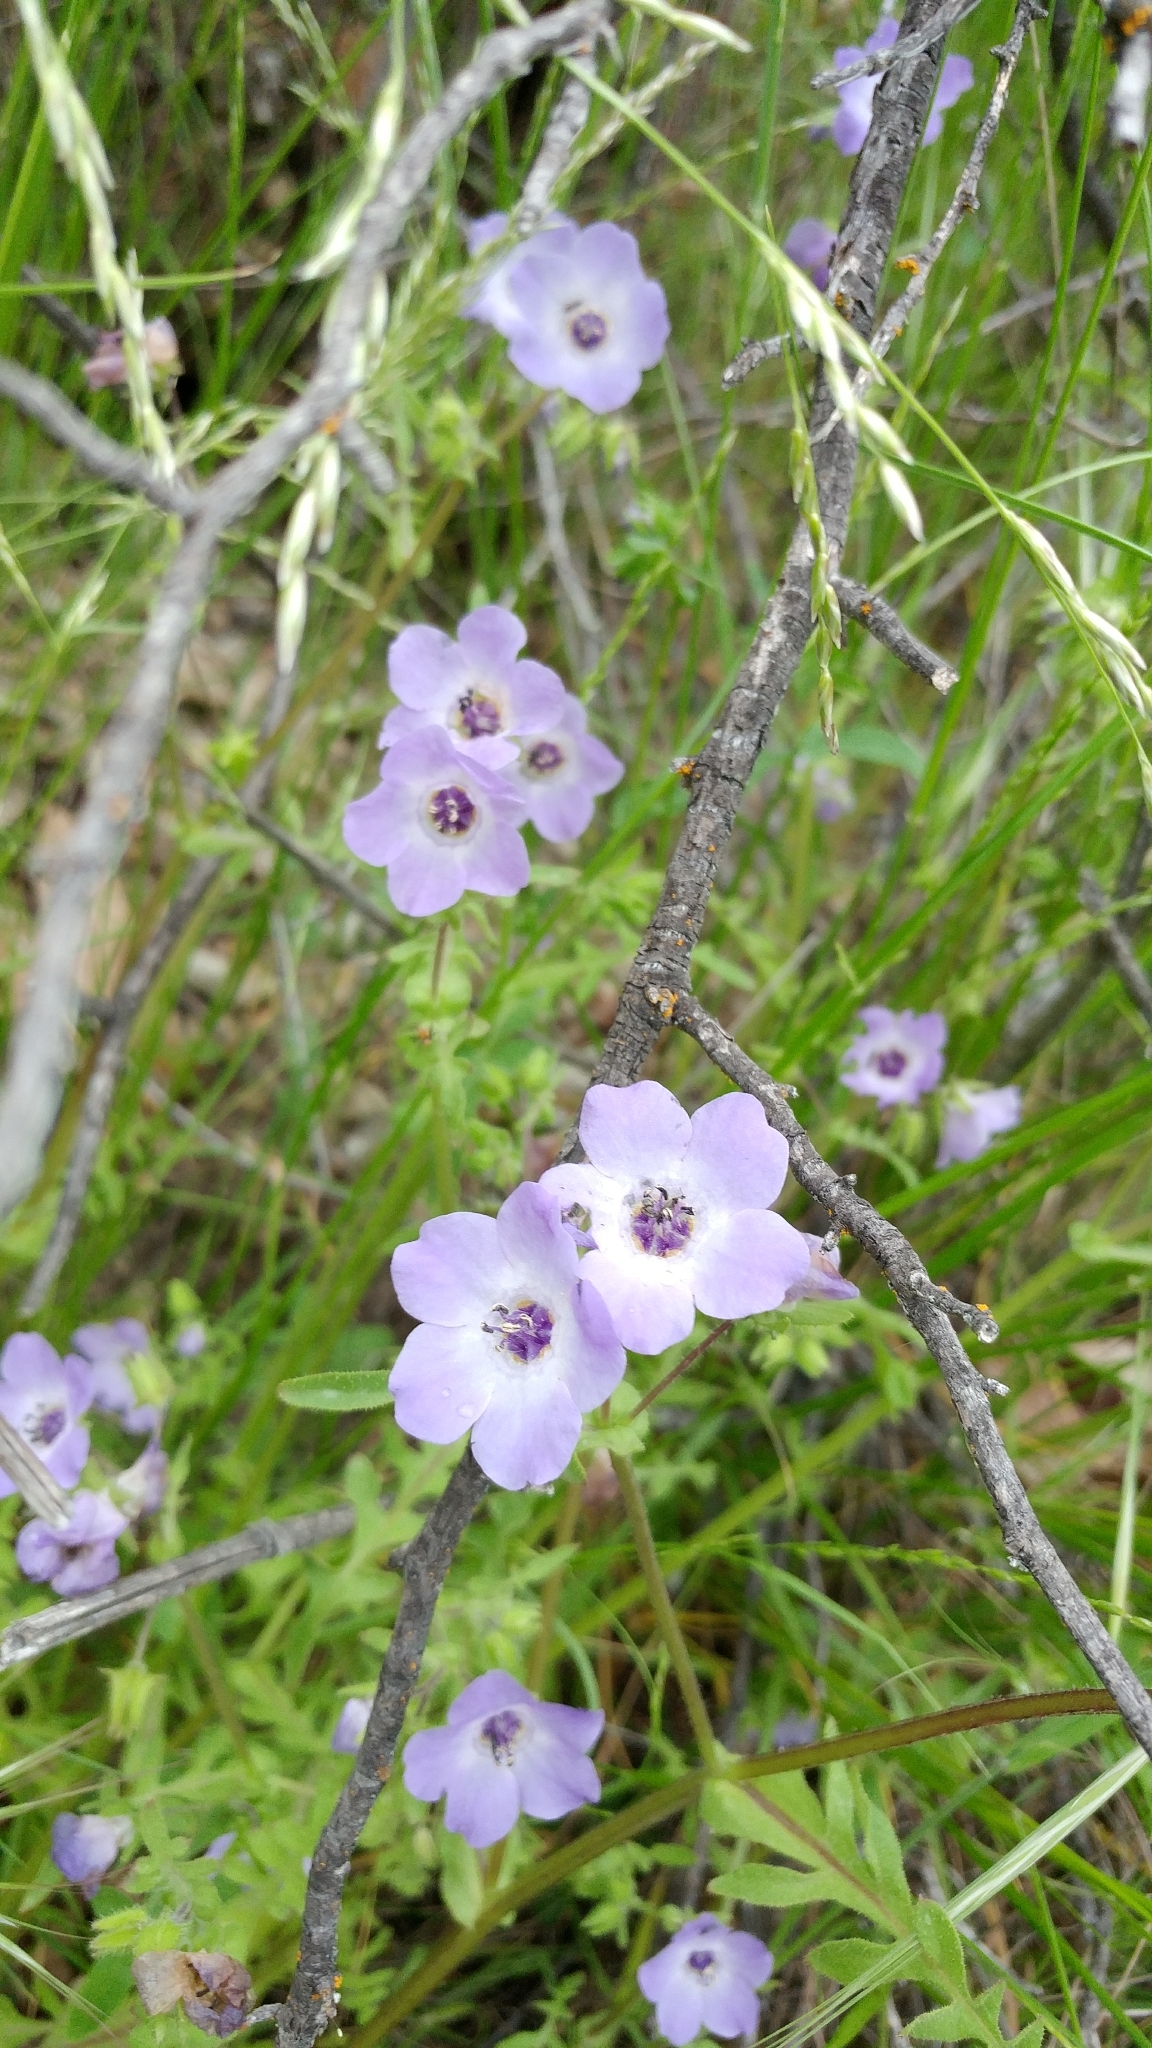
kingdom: Plantae
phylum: Tracheophyta
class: Magnoliopsida
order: Boraginales
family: Hydrophyllaceae
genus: Pholistoma
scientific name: Pholistoma auritum
